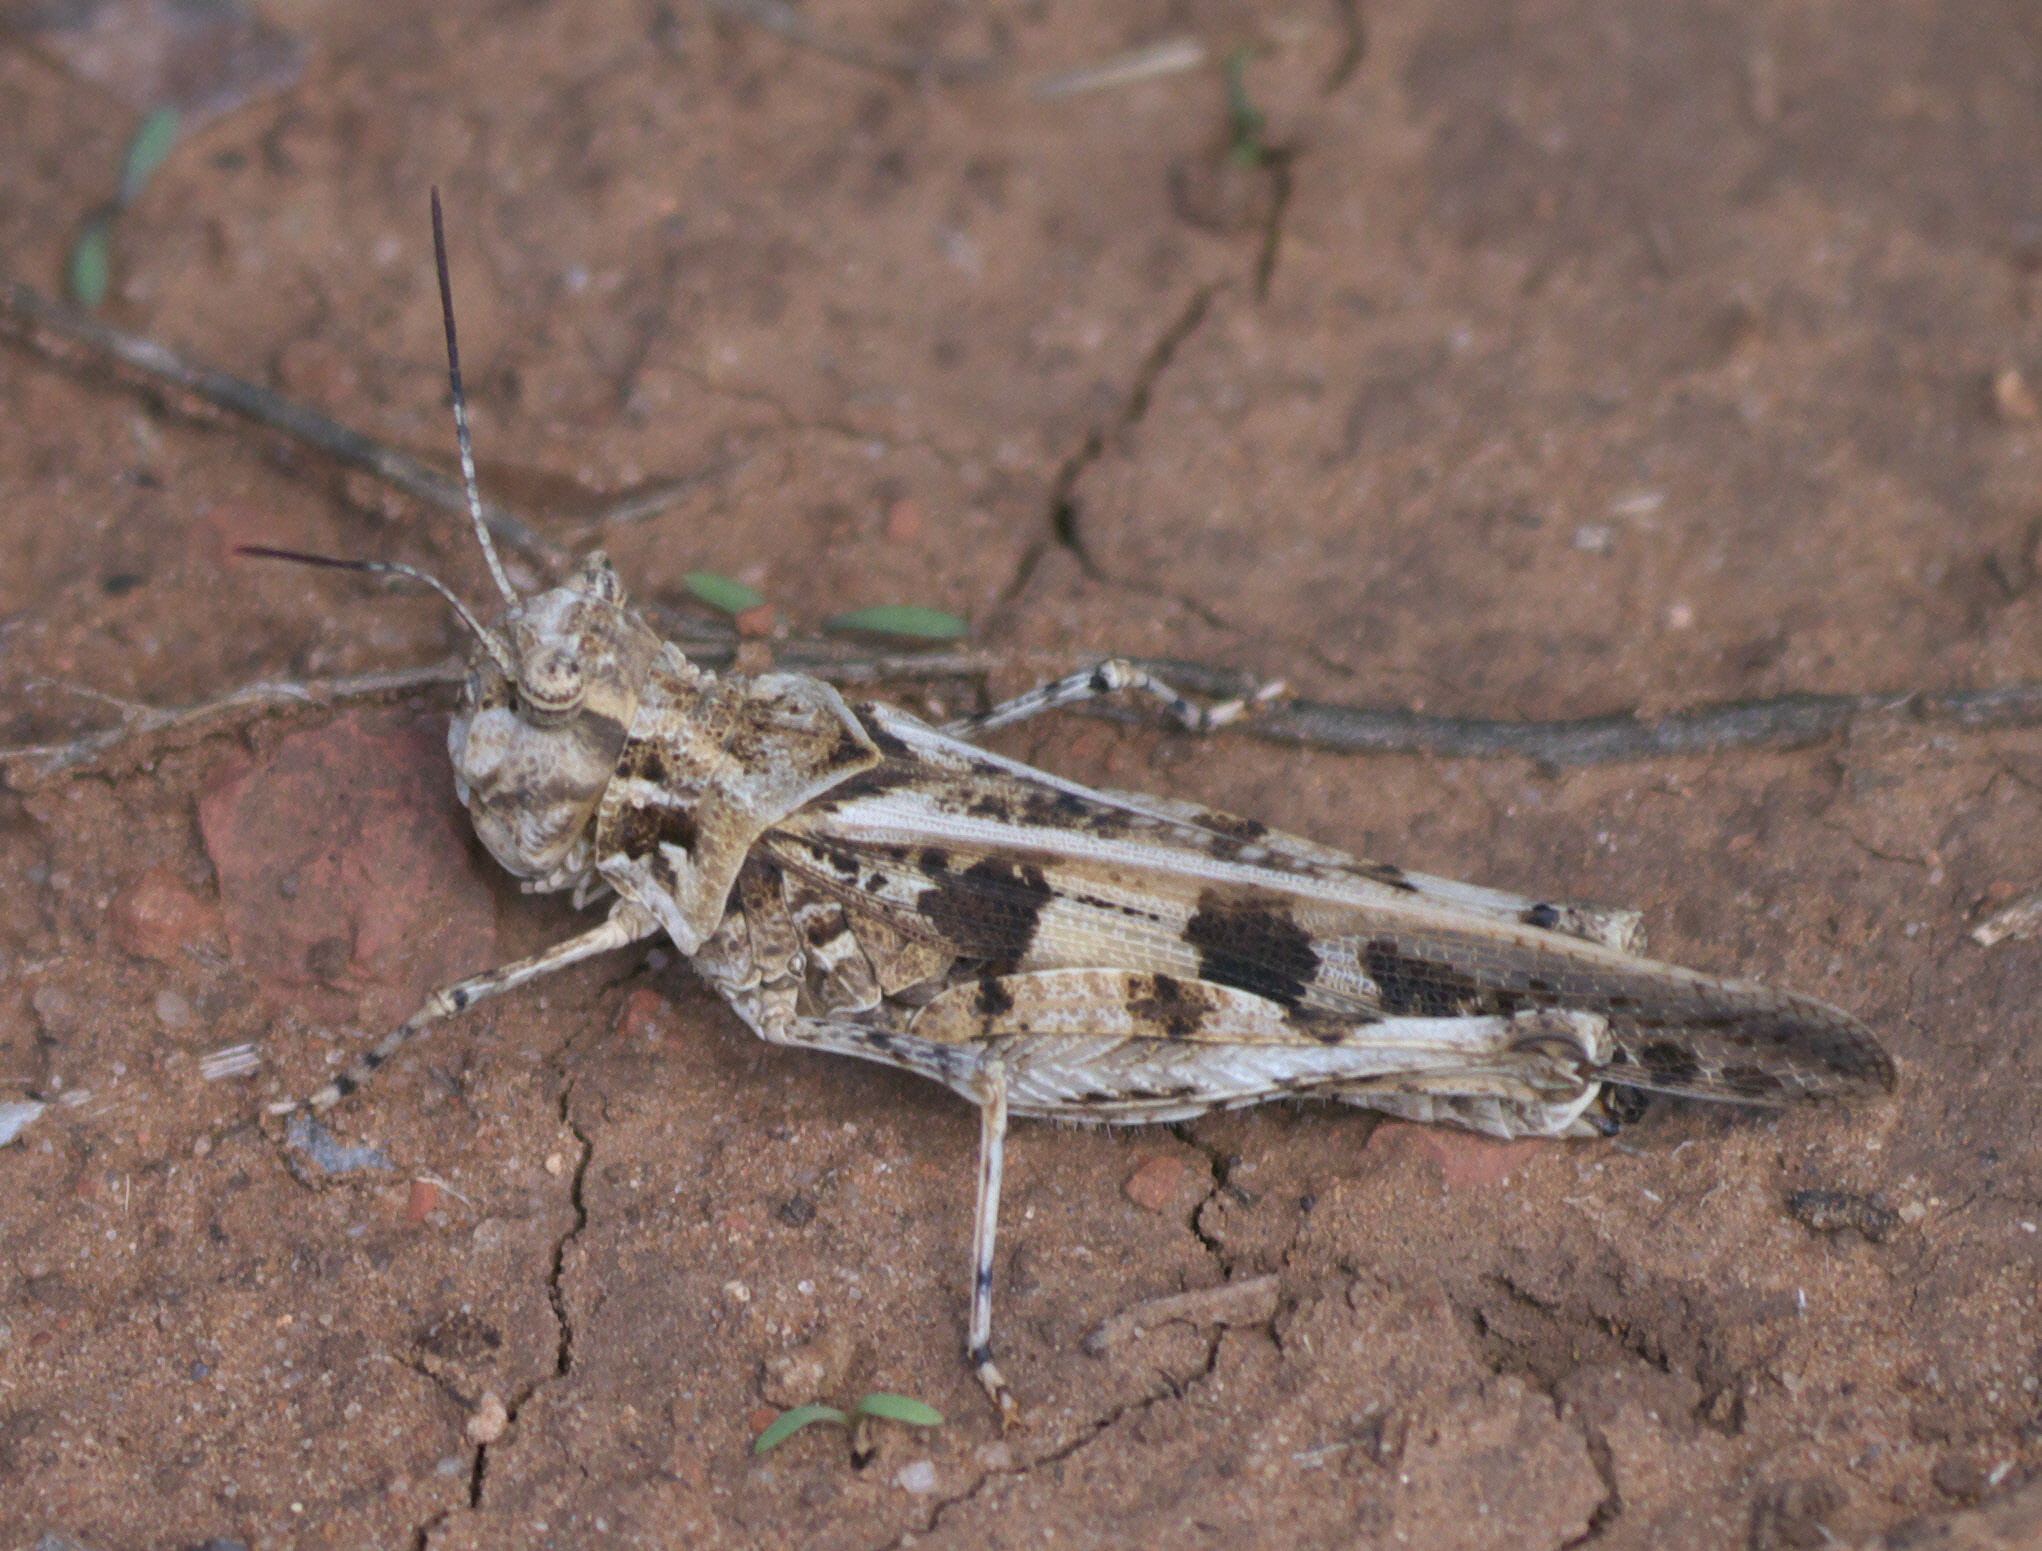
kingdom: Animalia
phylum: Arthropoda
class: Insecta
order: Orthoptera
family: Acrididae
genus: Trachyrhachys
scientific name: Trachyrhachys kiowa
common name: Kiowa grasshopper
